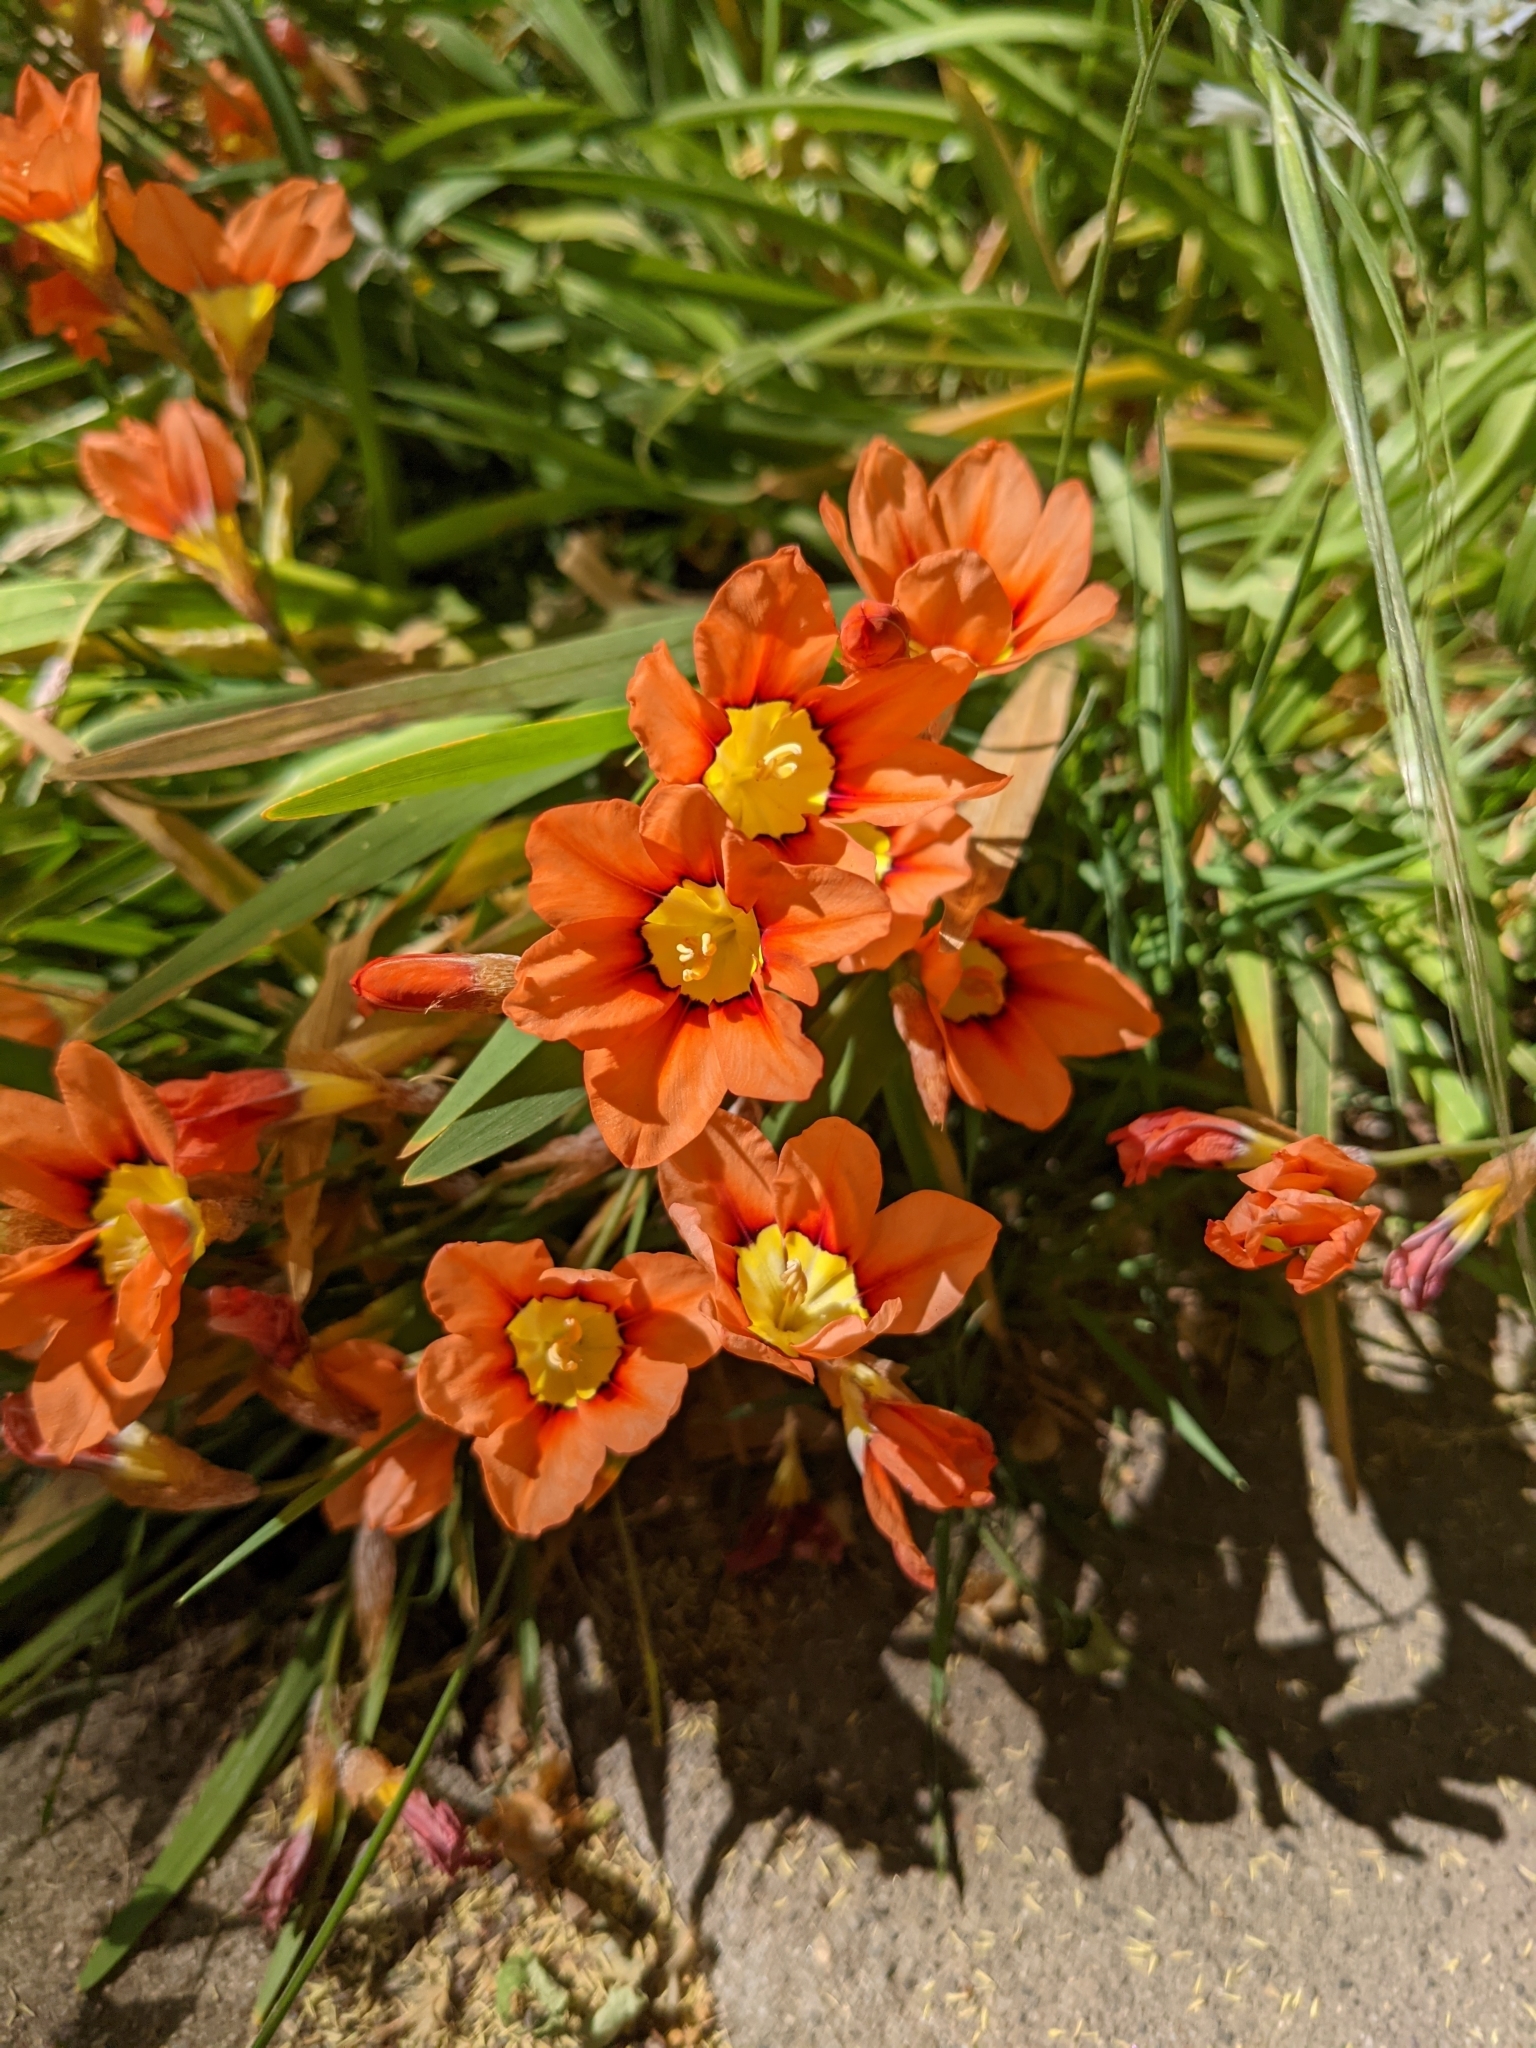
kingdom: Plantae
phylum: Tracheophyta
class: Liliopsida
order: Asparagales
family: Iridaceae
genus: Sparaxis
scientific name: Sparaxis tricolor
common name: Wandflower
